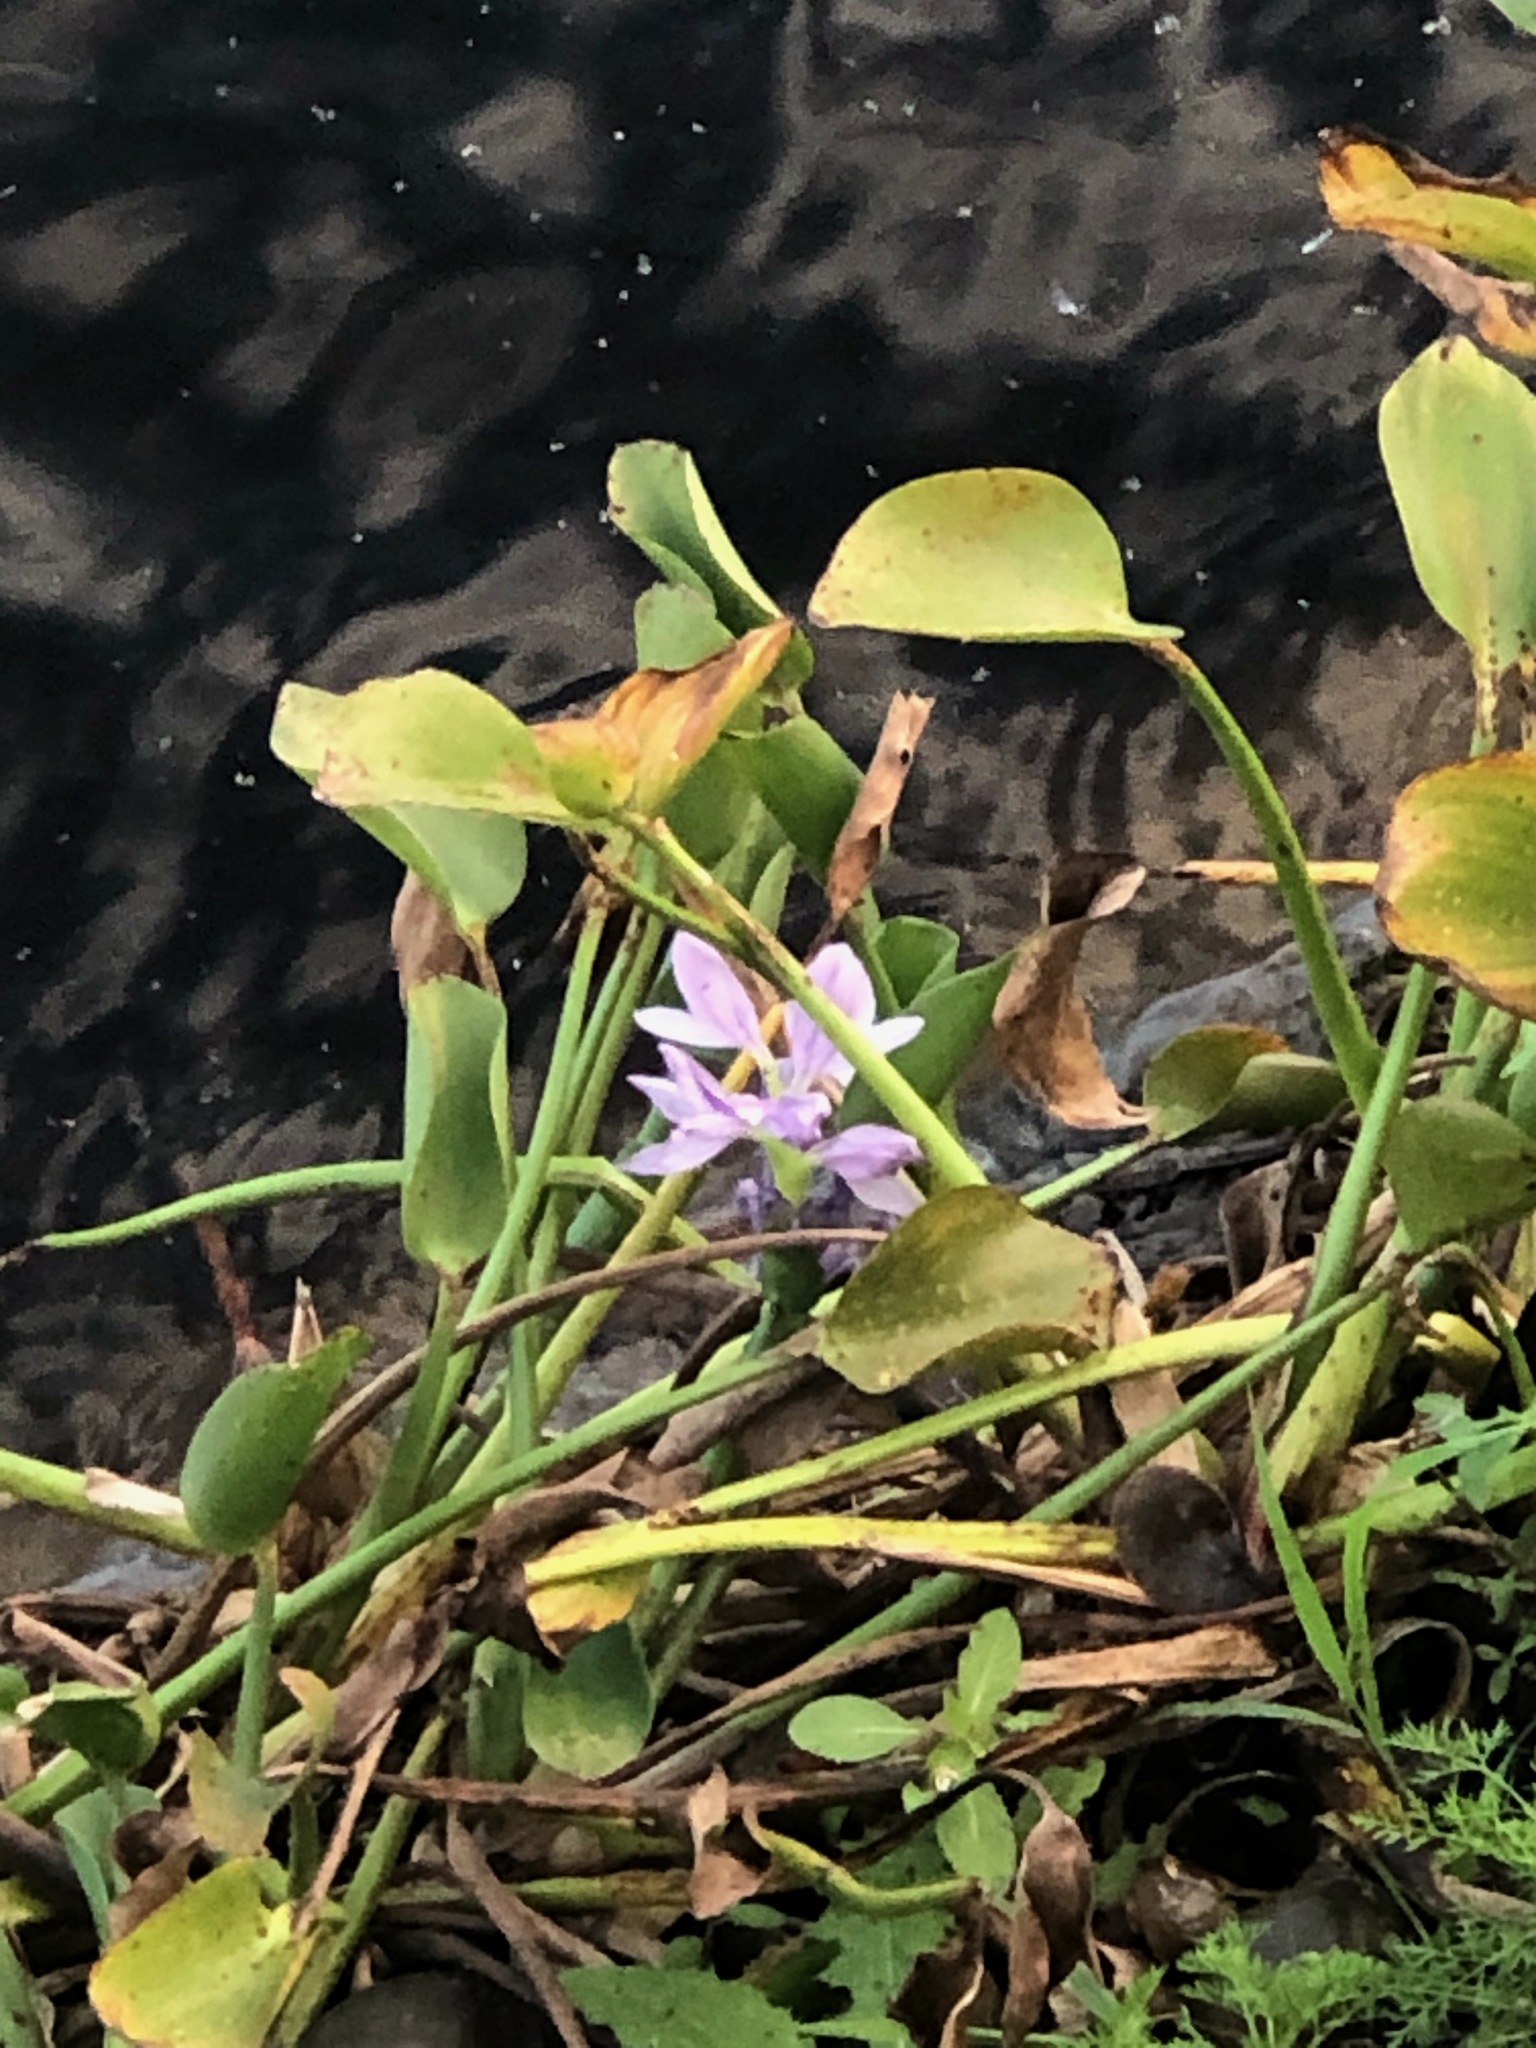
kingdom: Plantae
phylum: Tracheophyta
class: Liliopsida
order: Commelinales
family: Pontederiaceae
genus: Pontederia
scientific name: Pontederia crassipes
